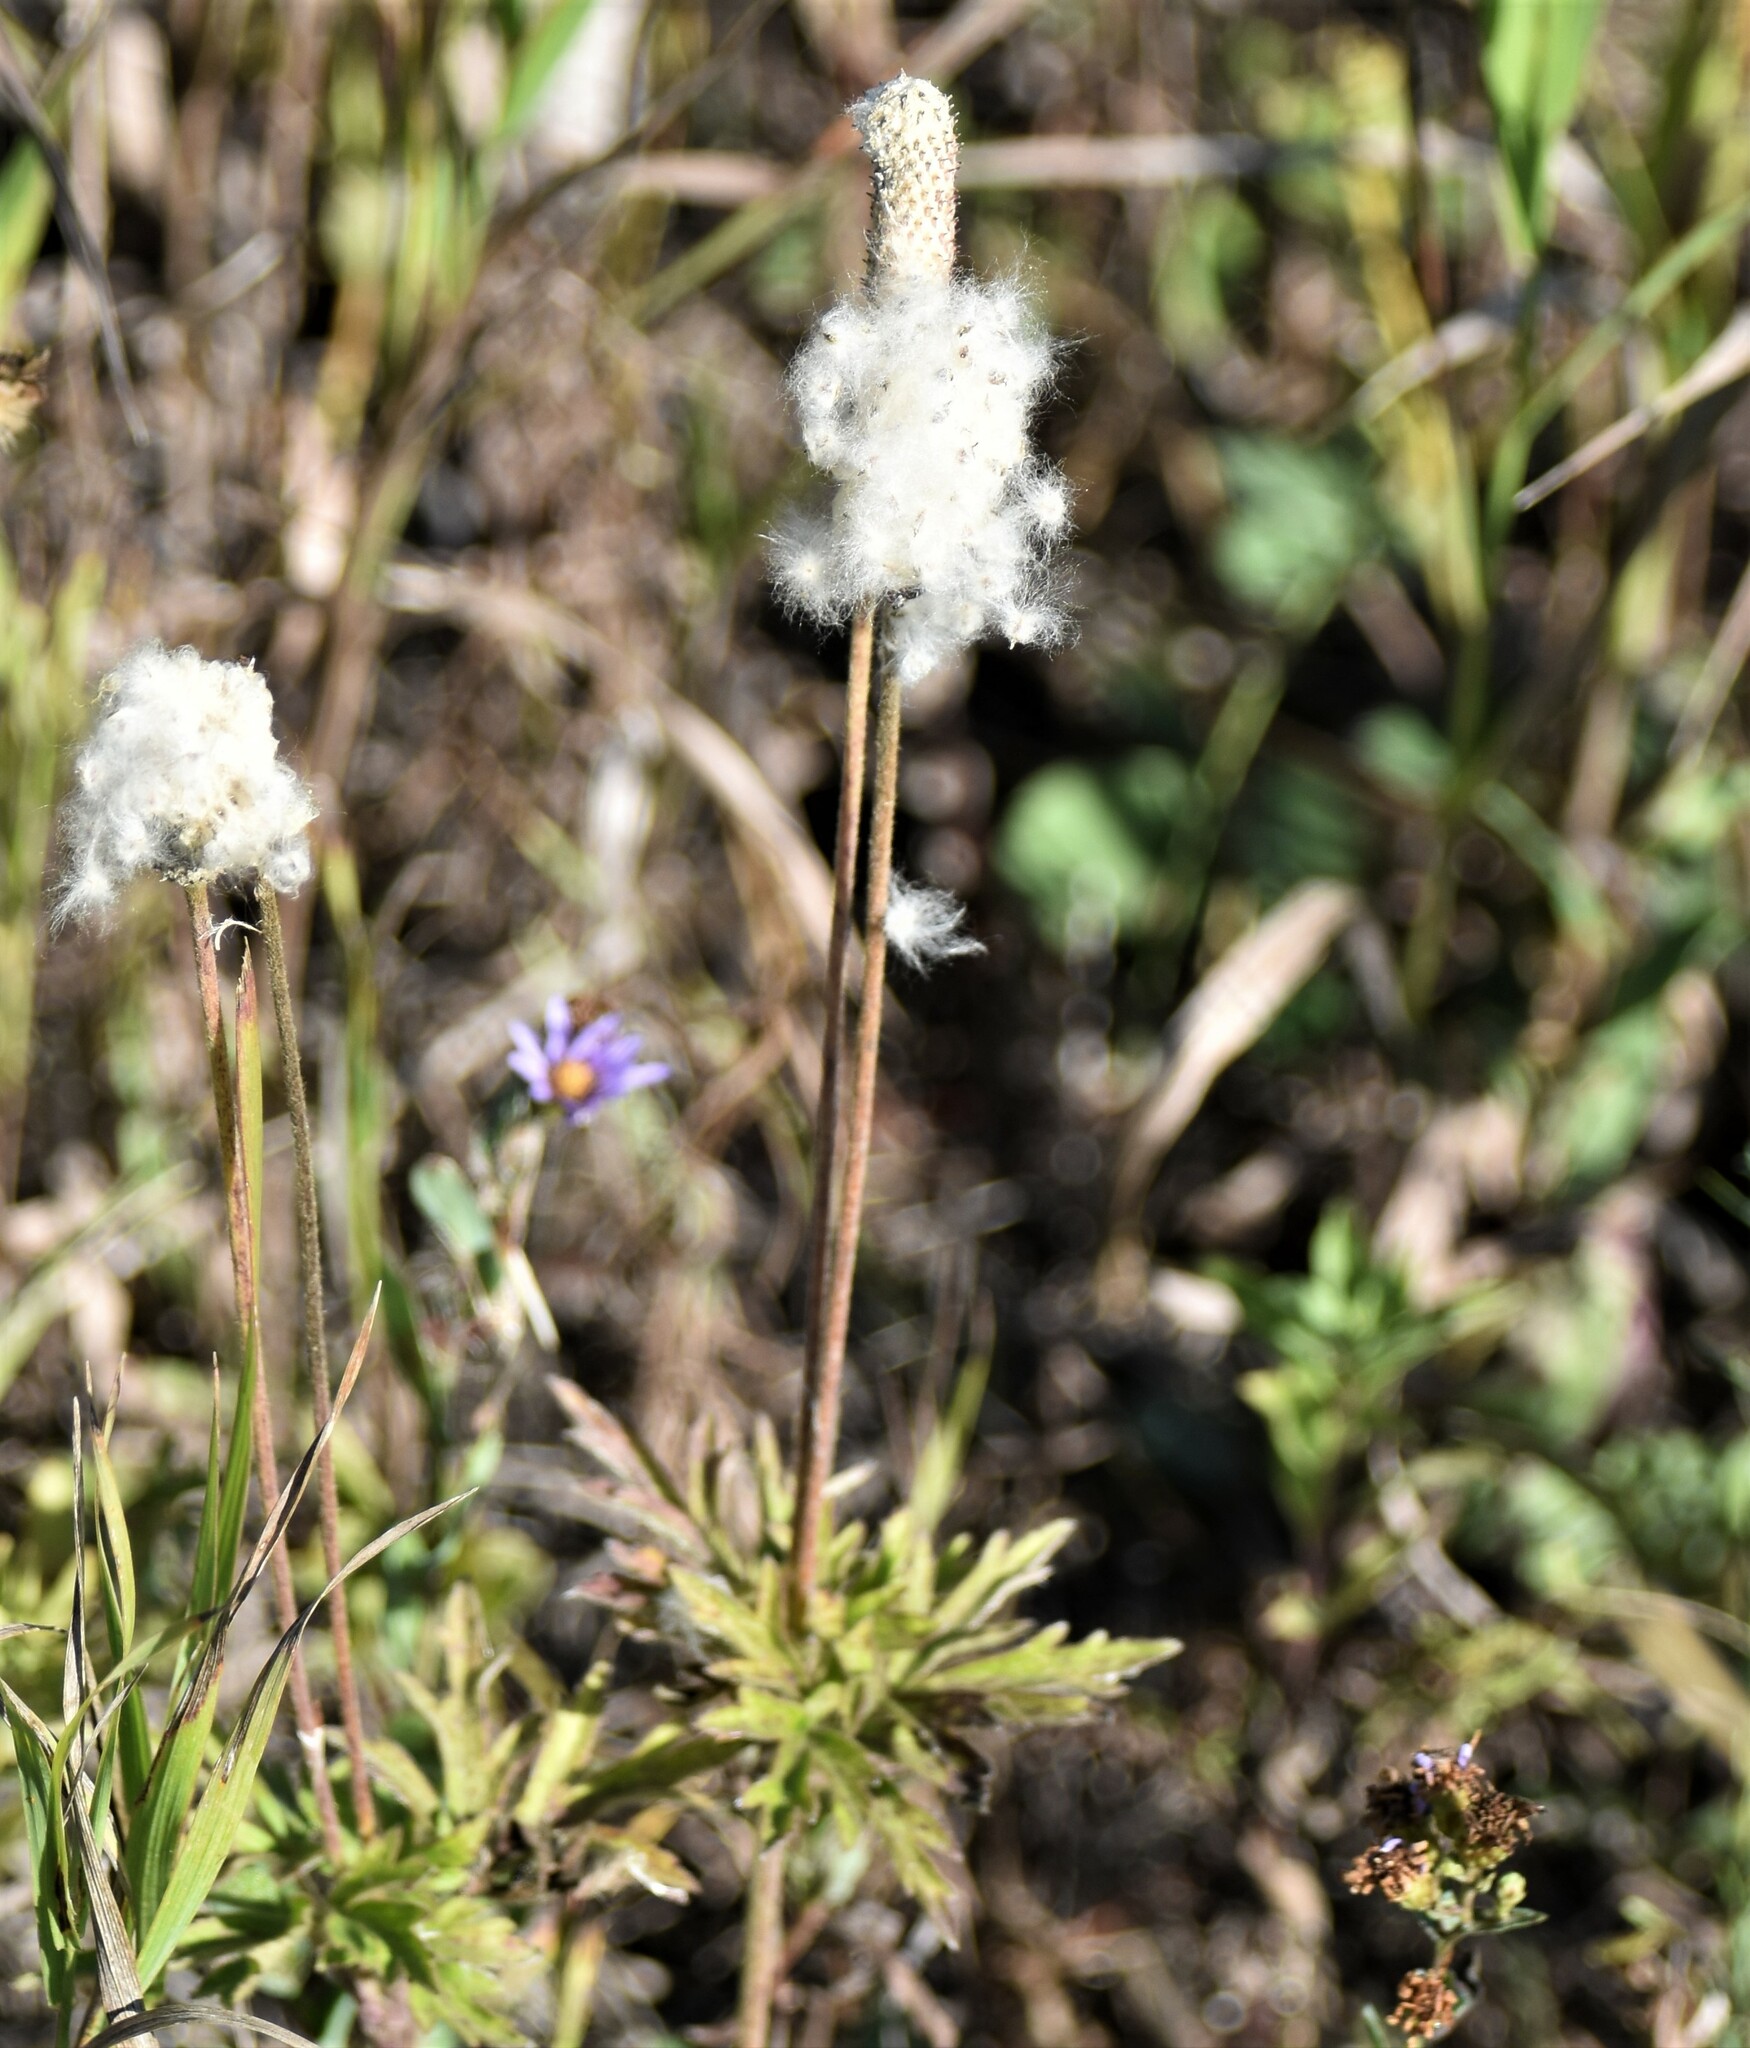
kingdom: Plantae
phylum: Tracheophyta
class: Magnoliopsida
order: Ranunculales
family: Ranunculaceae
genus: Anemone
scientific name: Anemone cylindrica
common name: Candle anemone
